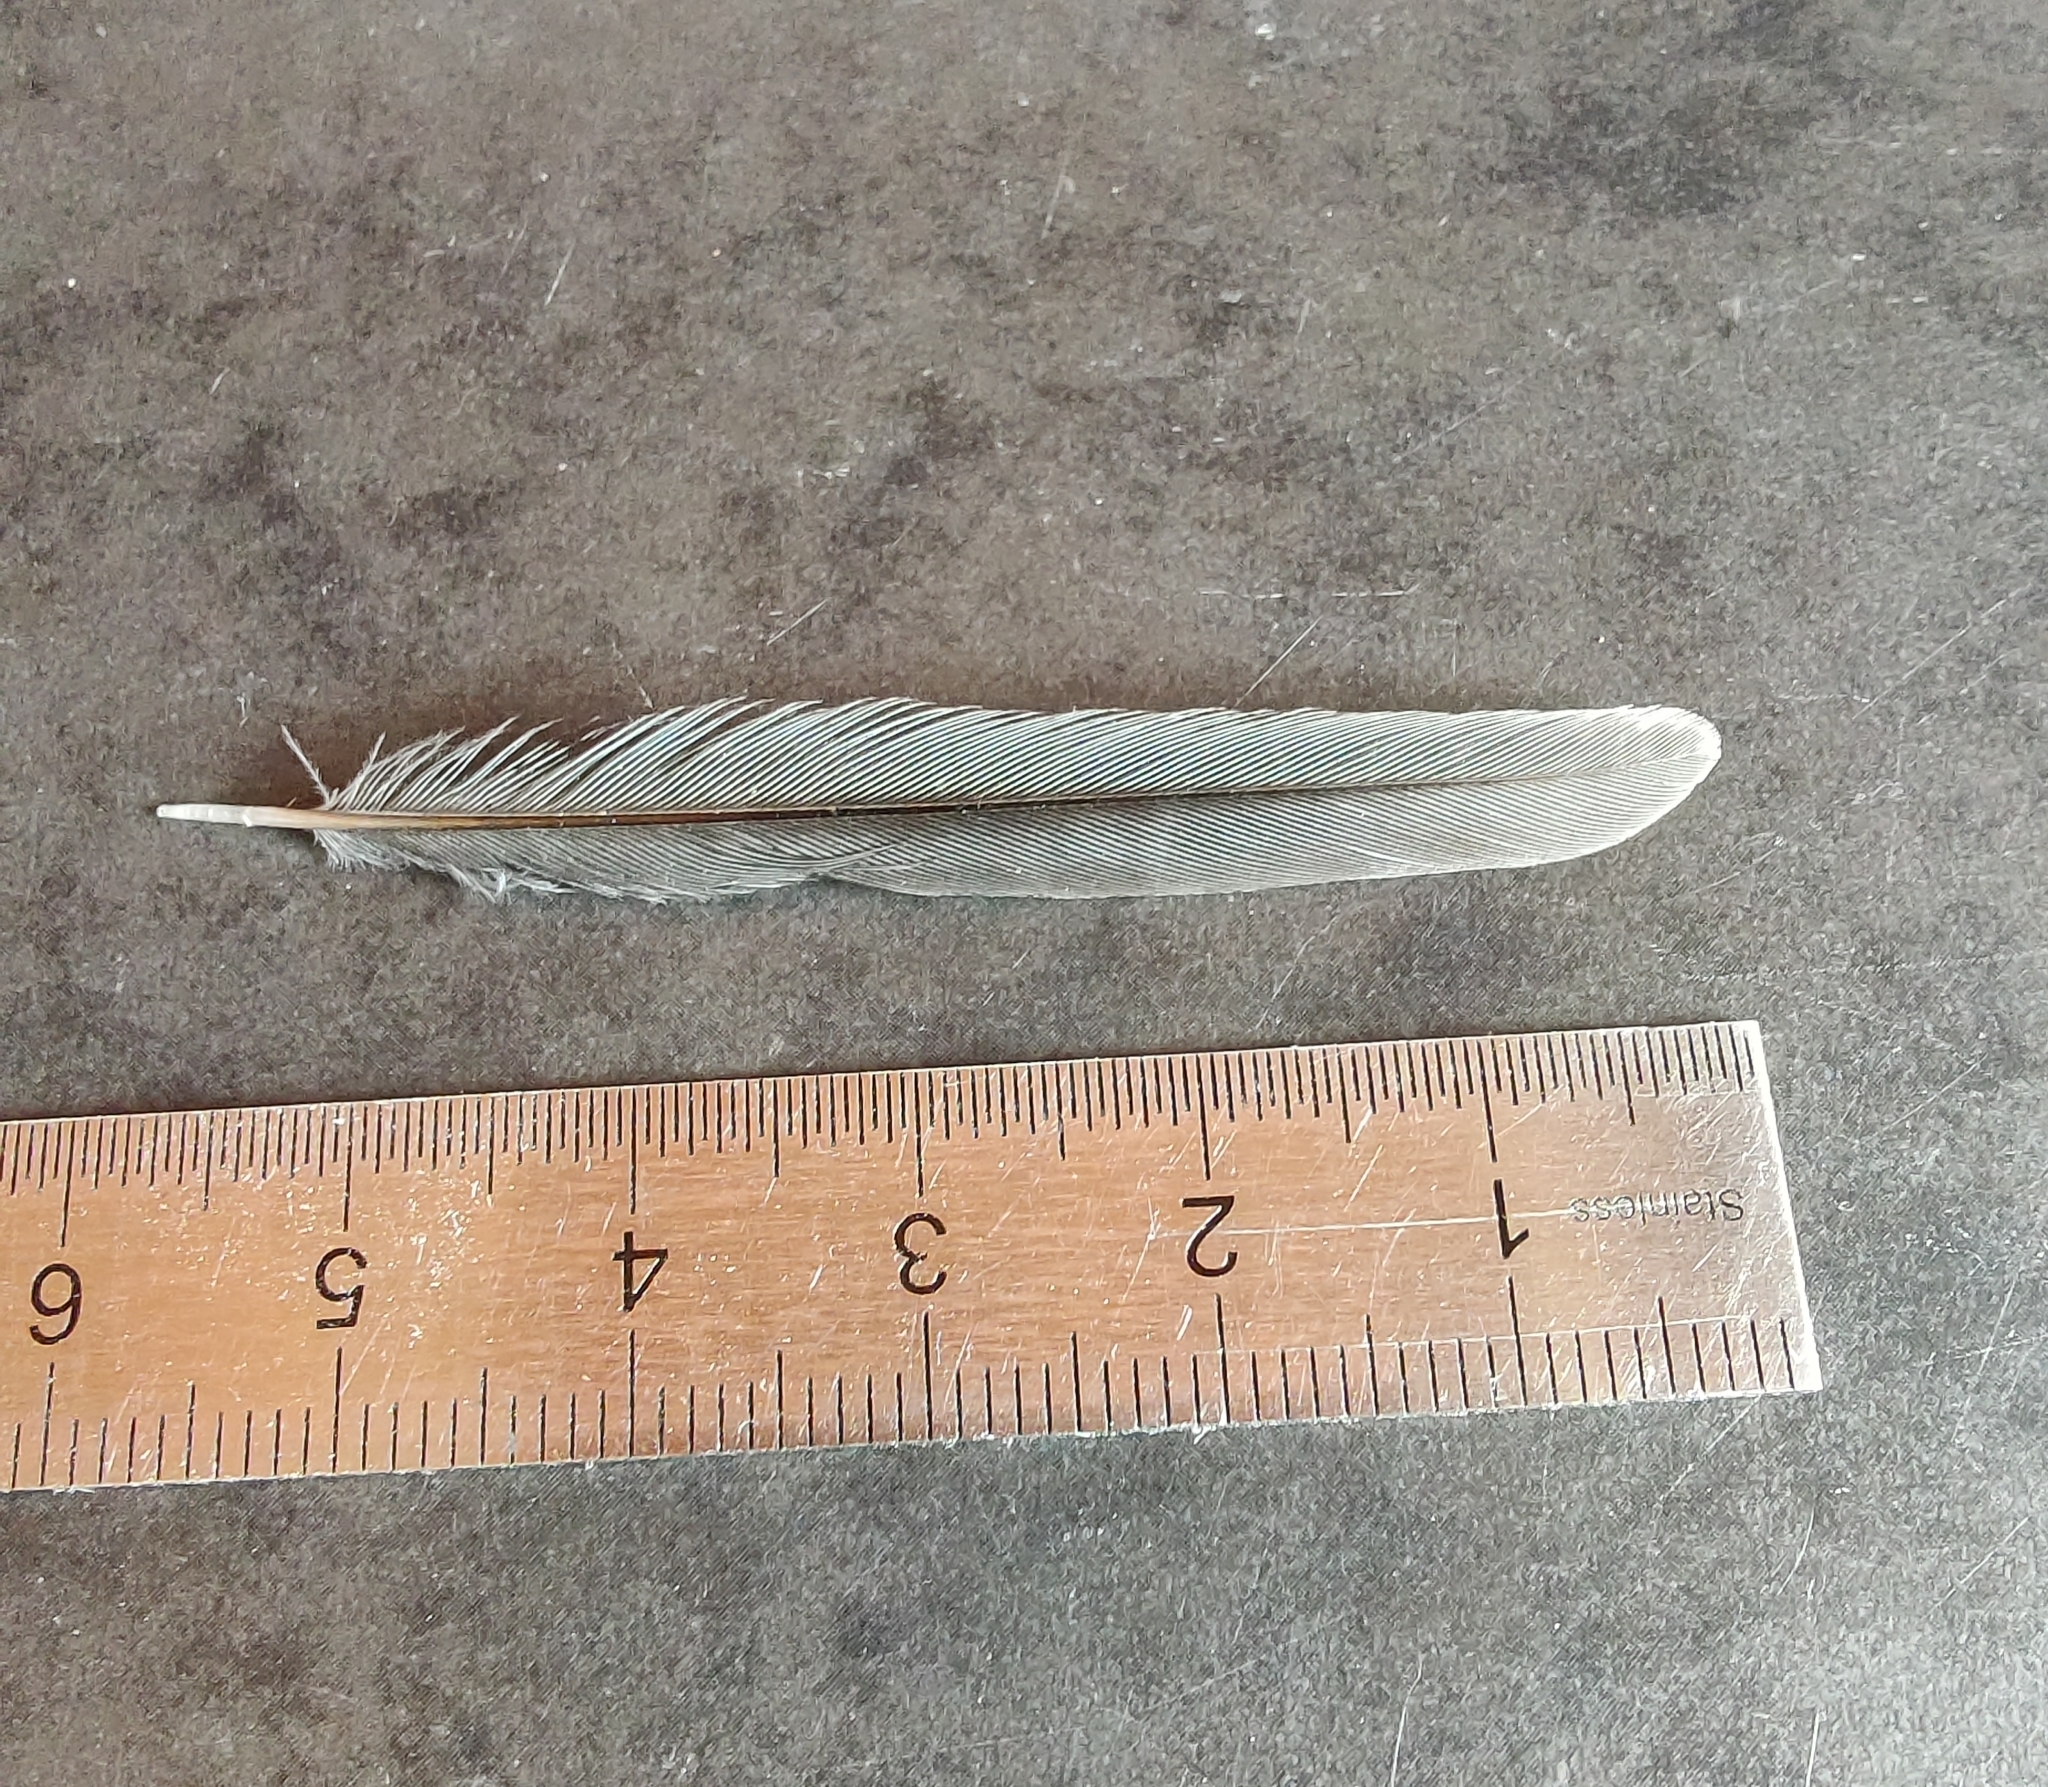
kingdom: Animalia
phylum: Chordata
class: Aves
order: Passeriformes
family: Paridae
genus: Parus
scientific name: Parus major
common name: Great tit
